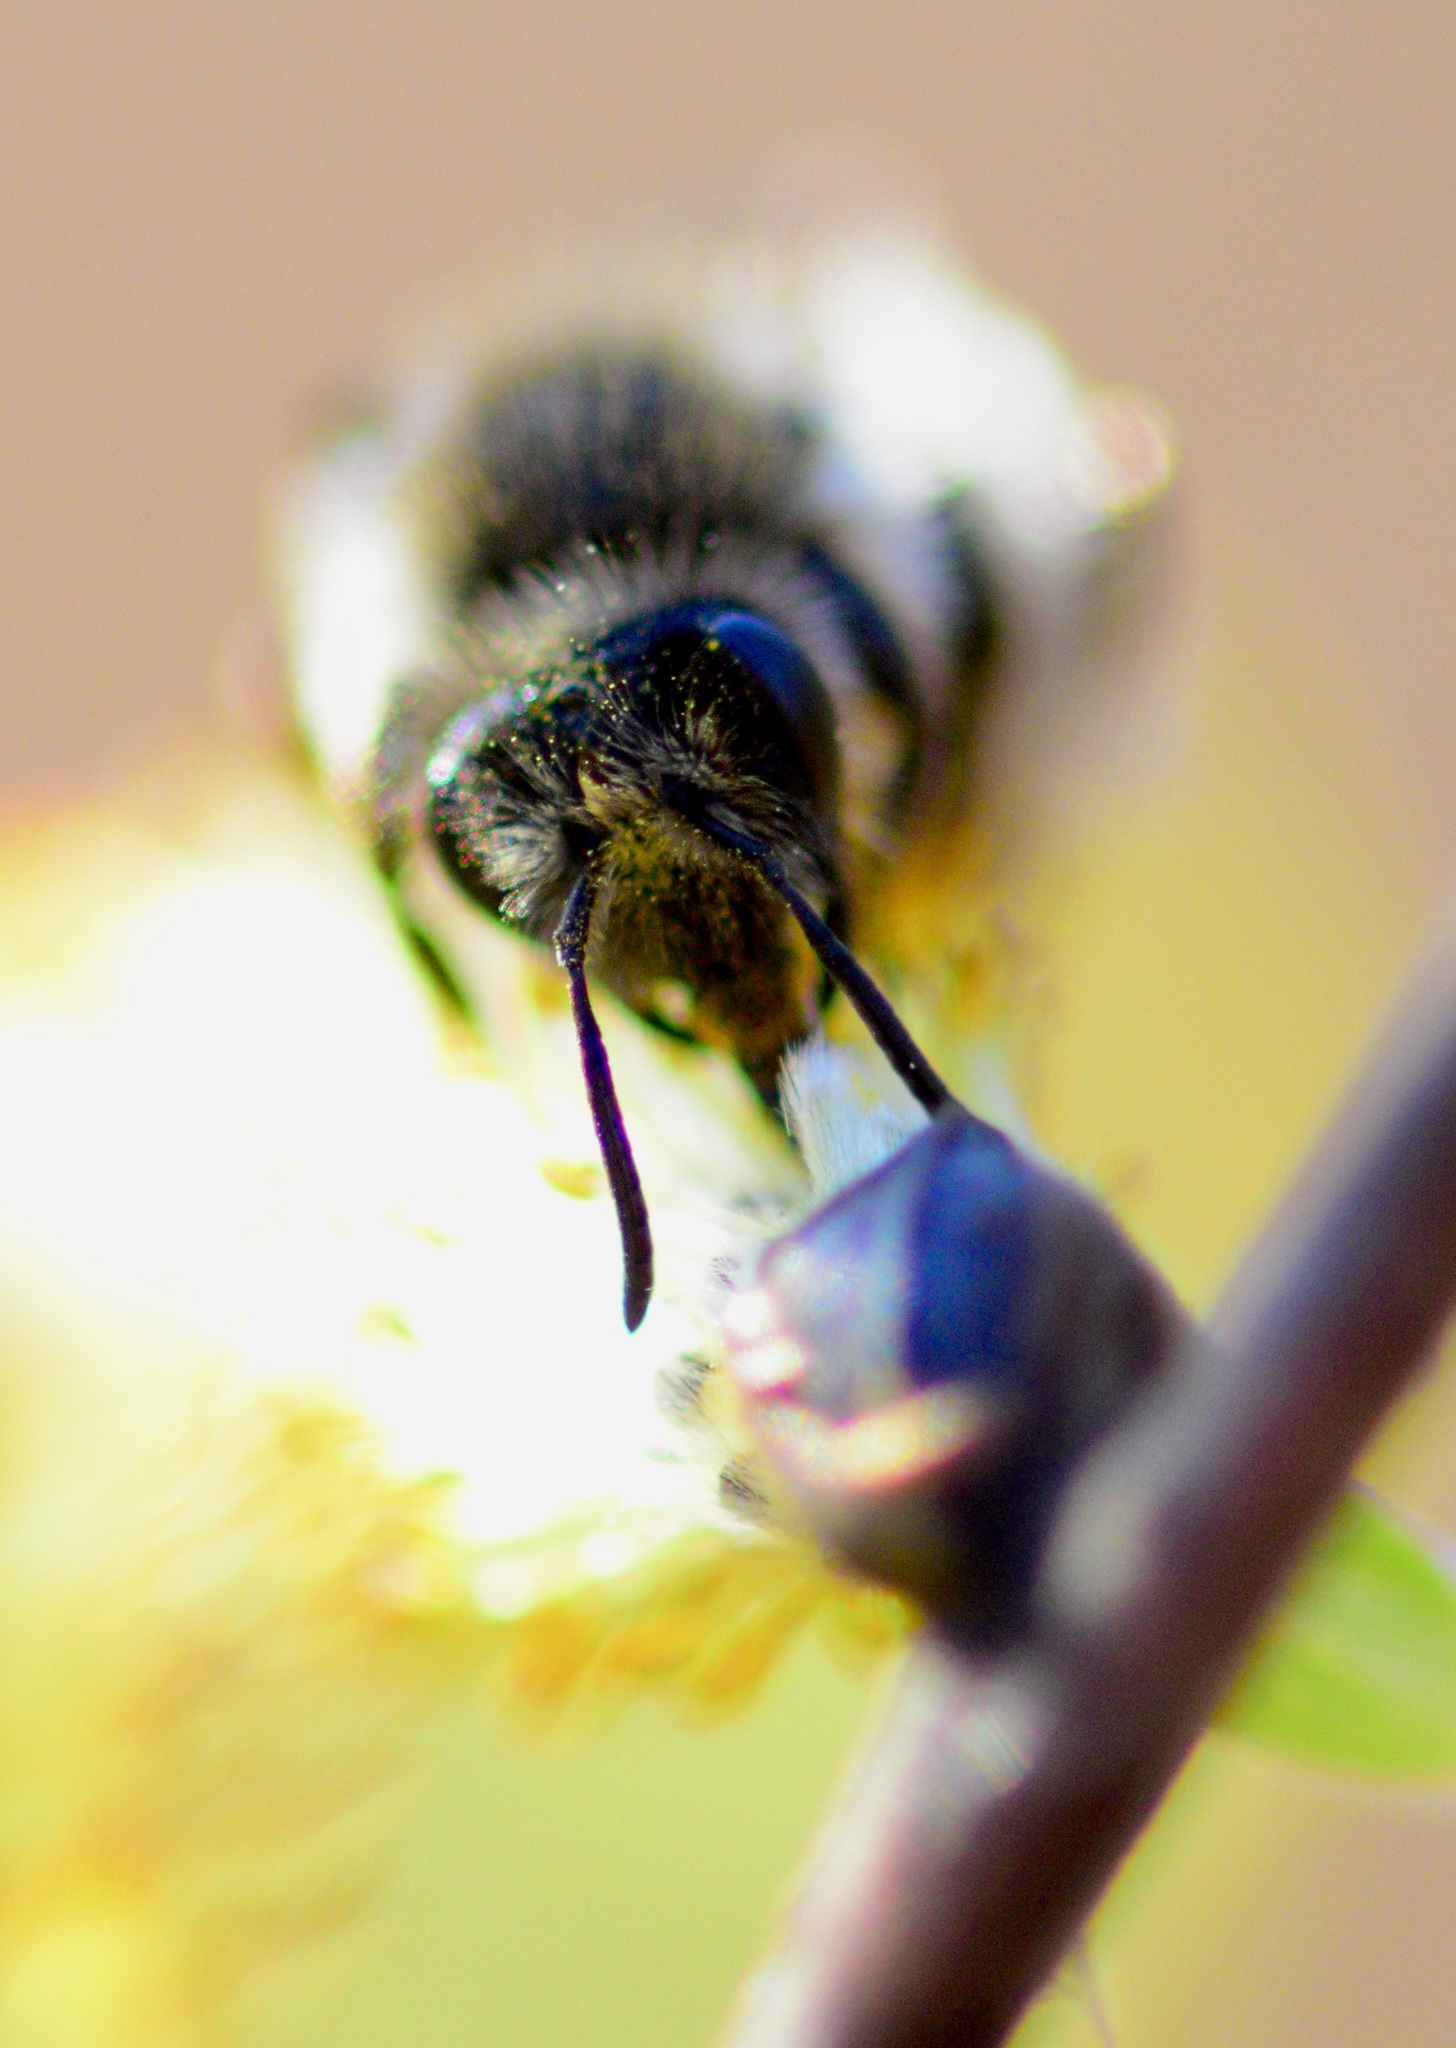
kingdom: Animalia
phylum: Arthropoda
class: Insecta
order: Hymenoptera
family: Andrenidae
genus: Andrena
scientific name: Andrena frigida
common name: Frigid mining bee
